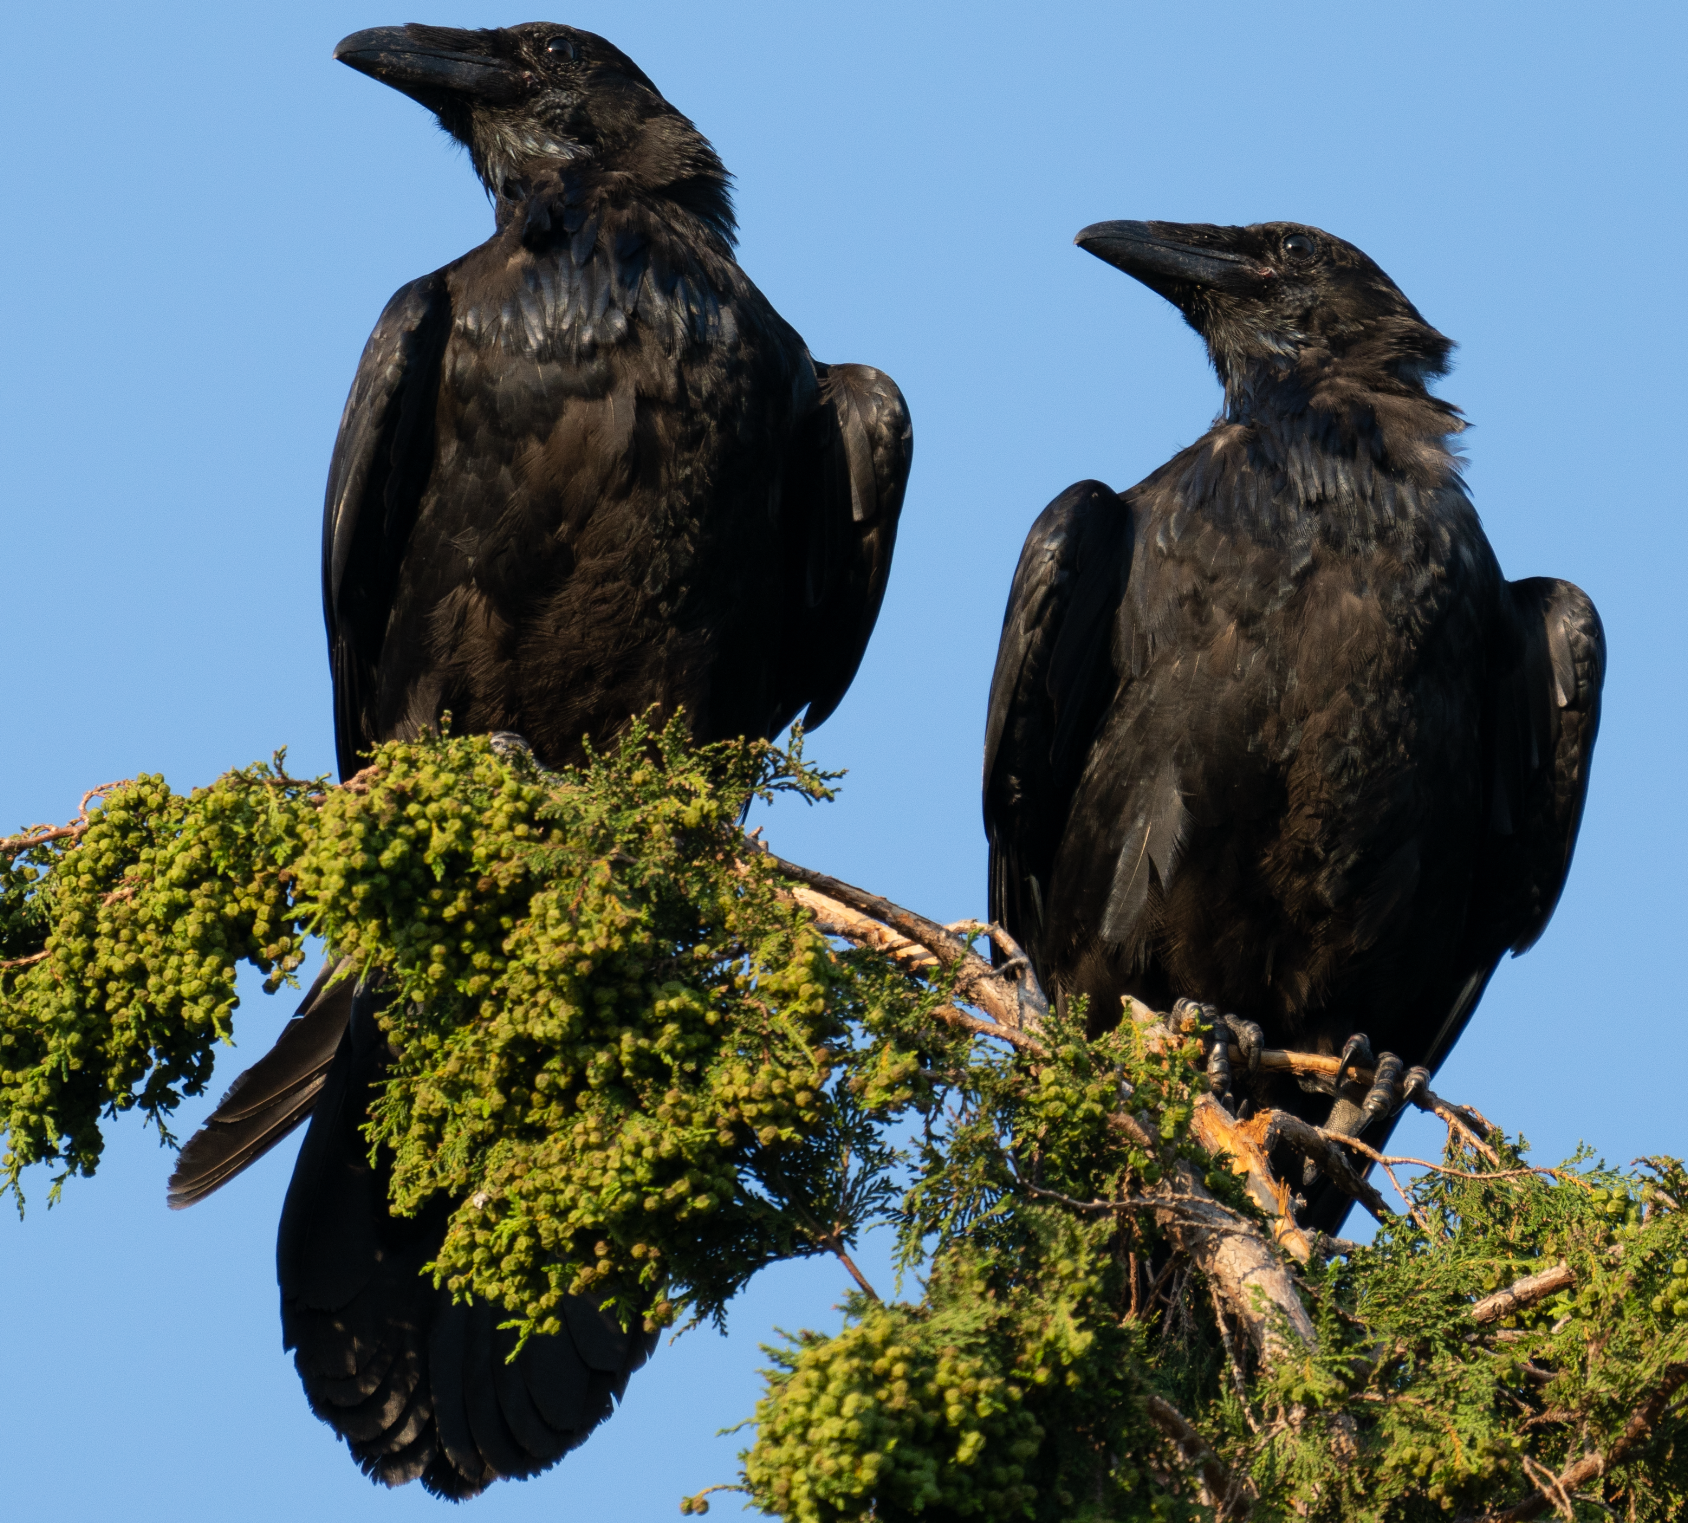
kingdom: Animalia
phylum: Chordata
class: Aves
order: Passeriformes
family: Corvidae
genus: Corvus
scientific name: Corvus corax
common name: Common raven
